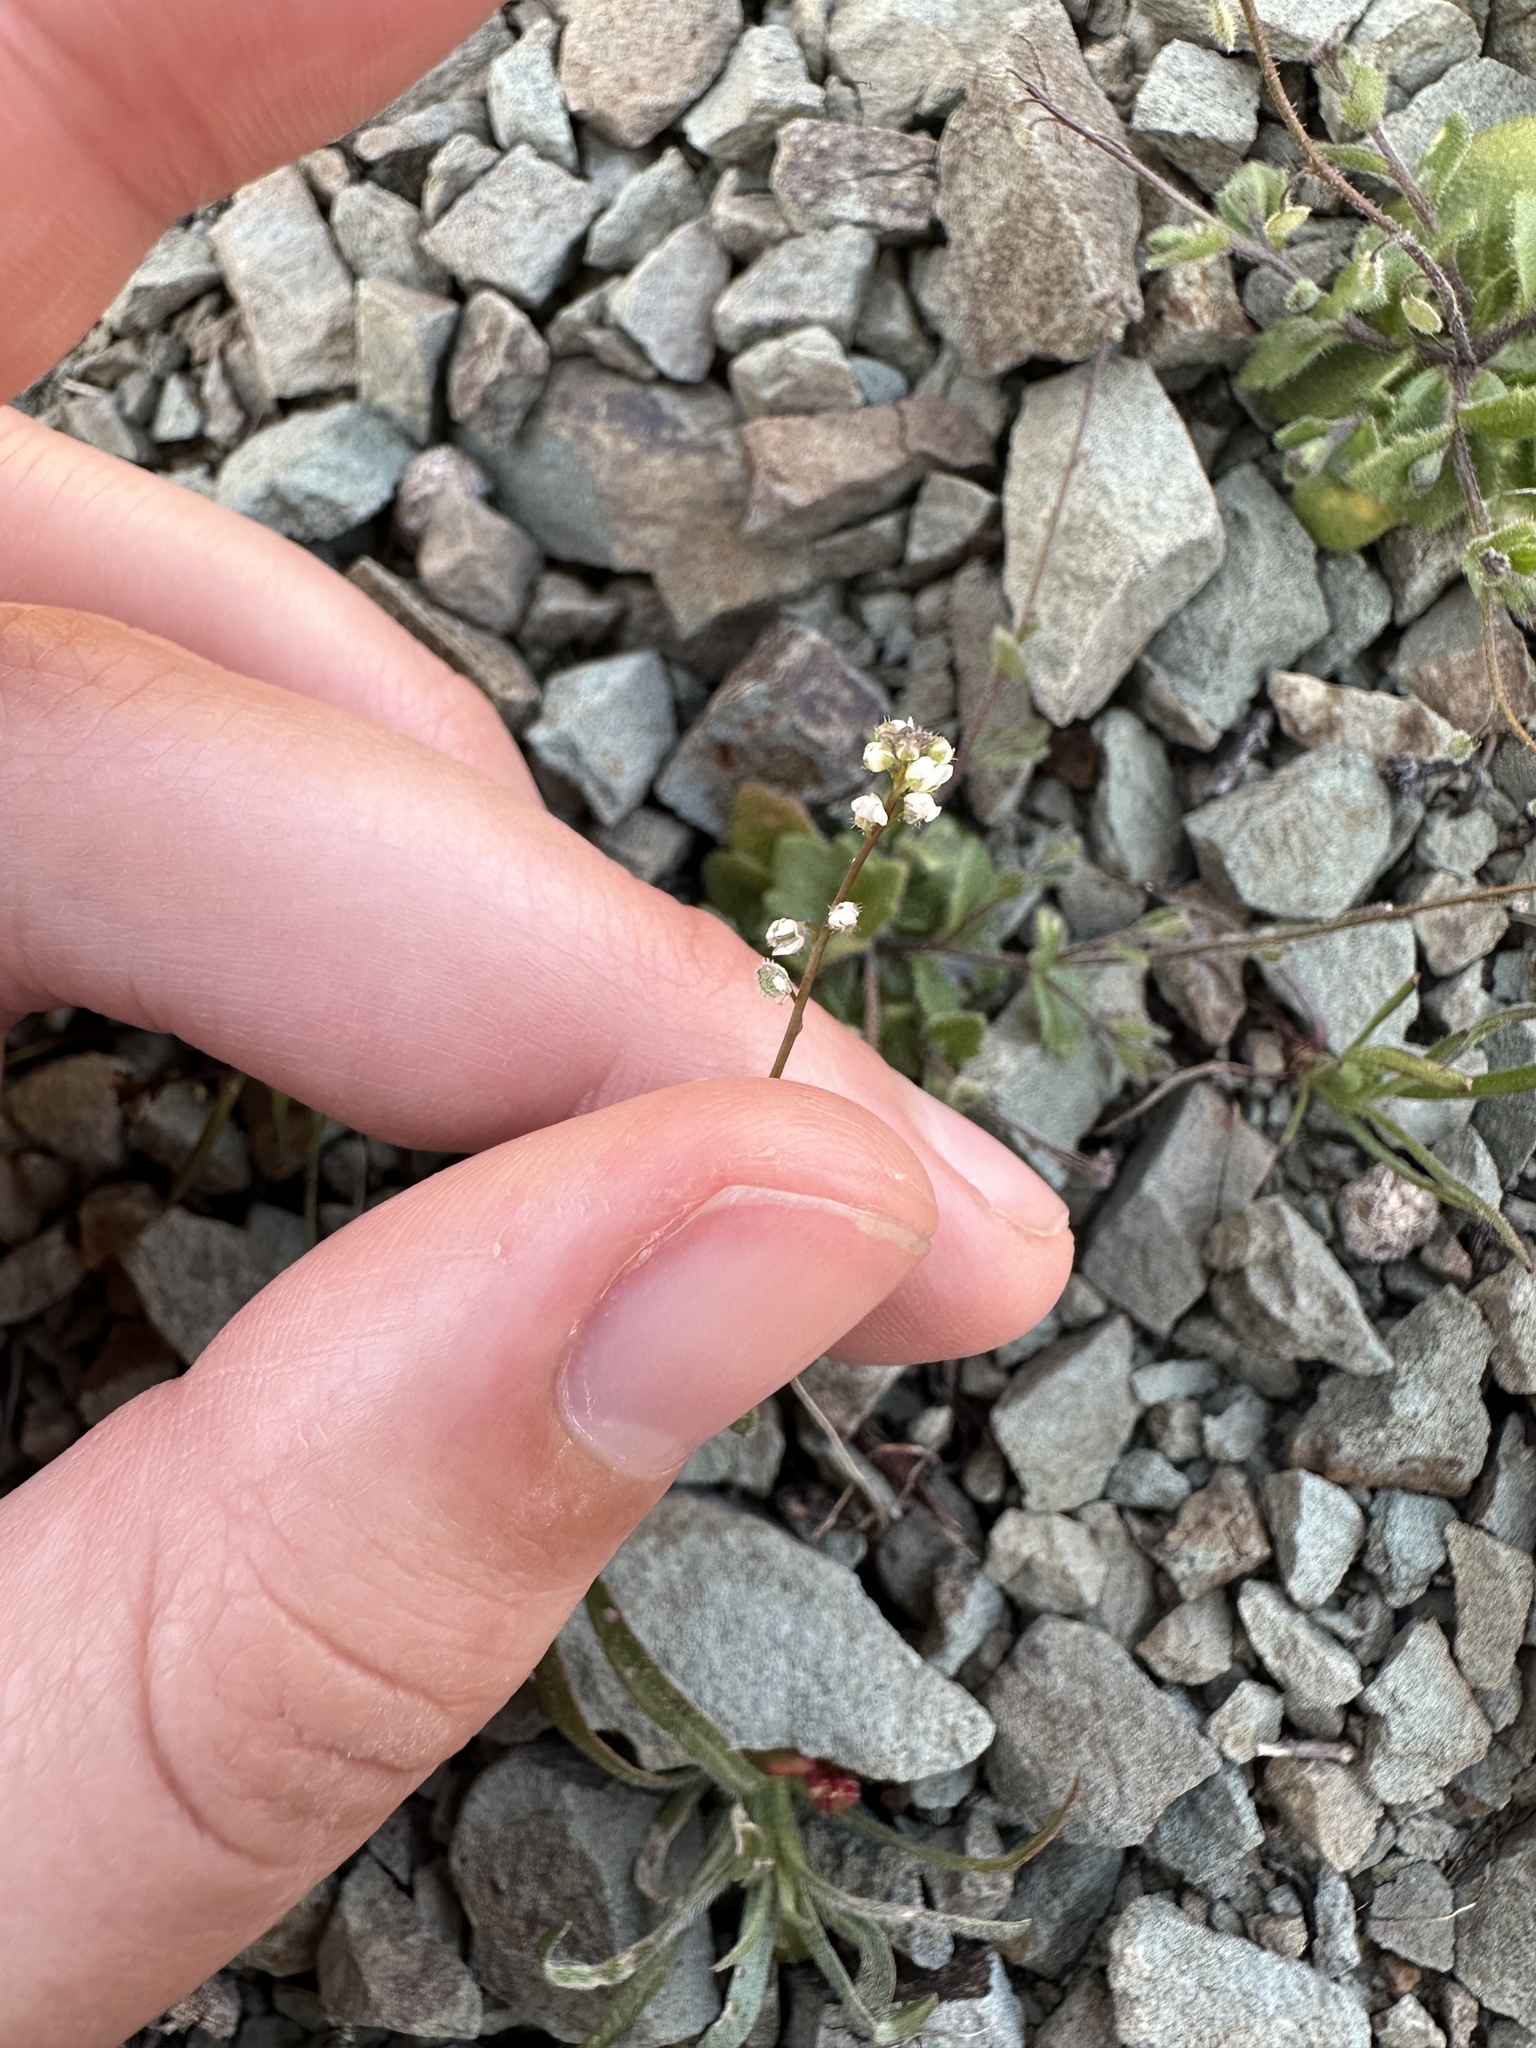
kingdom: Plantae
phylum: Tracheophyta
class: Magnoliopsida
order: Brassicales
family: Brassicaceae
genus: Athysanus
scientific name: Athysanus pusillus
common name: Common sandweed
